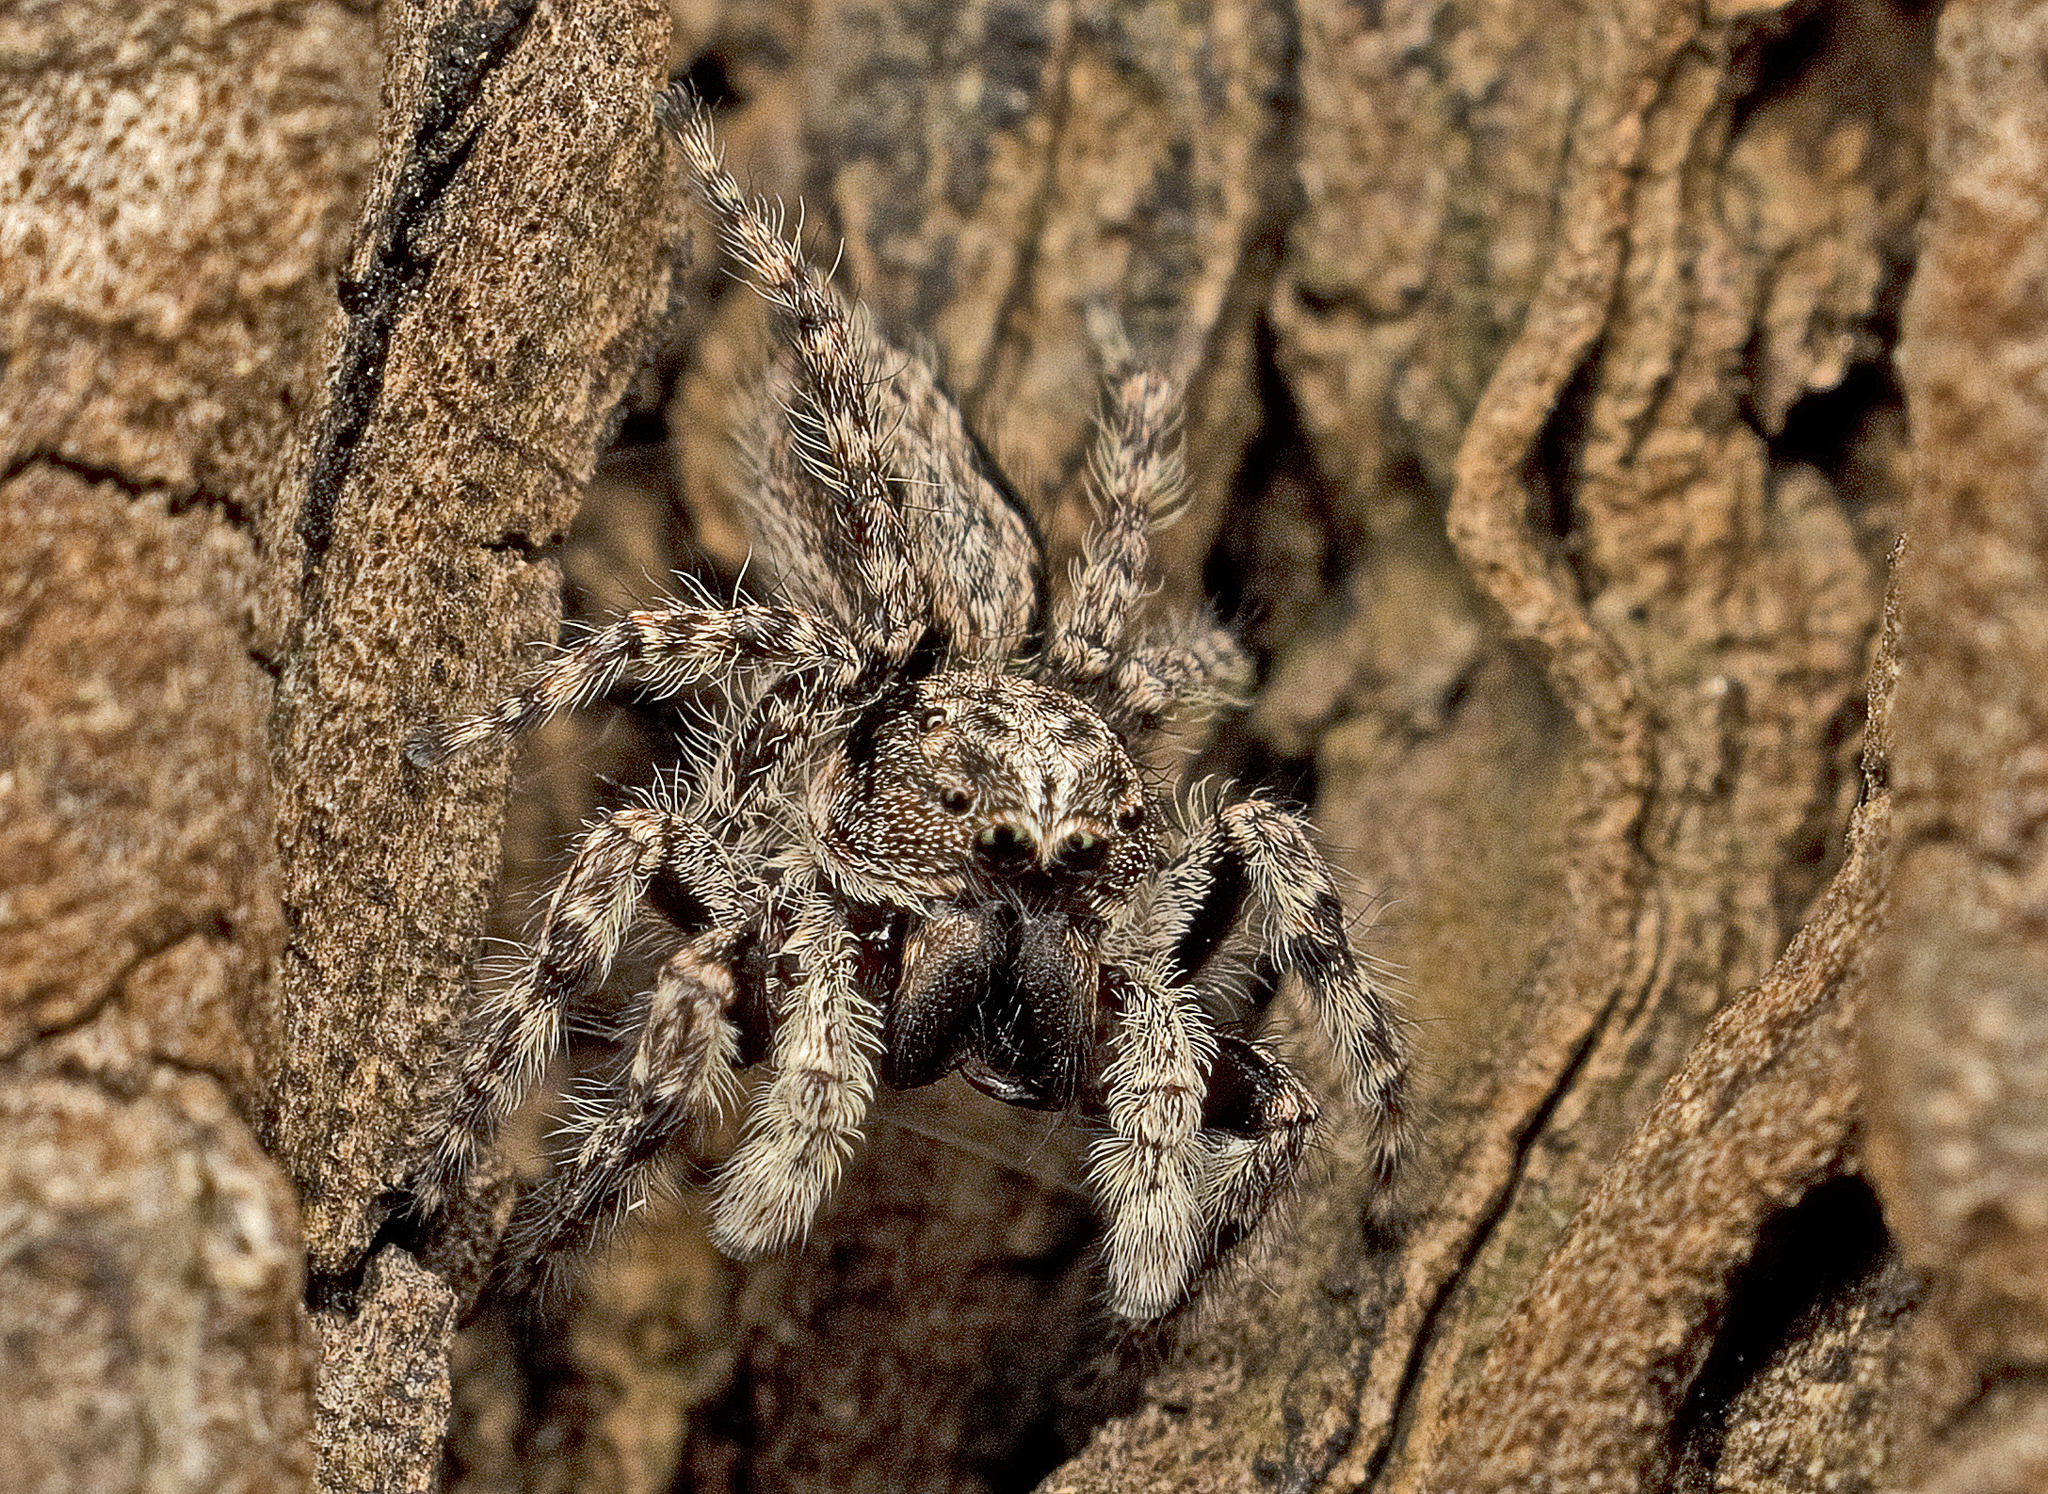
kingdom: Animalia
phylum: Arthropoda
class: Arachnida
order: Araneae
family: Salticidae
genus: Clynotis
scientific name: Clynotis severus
